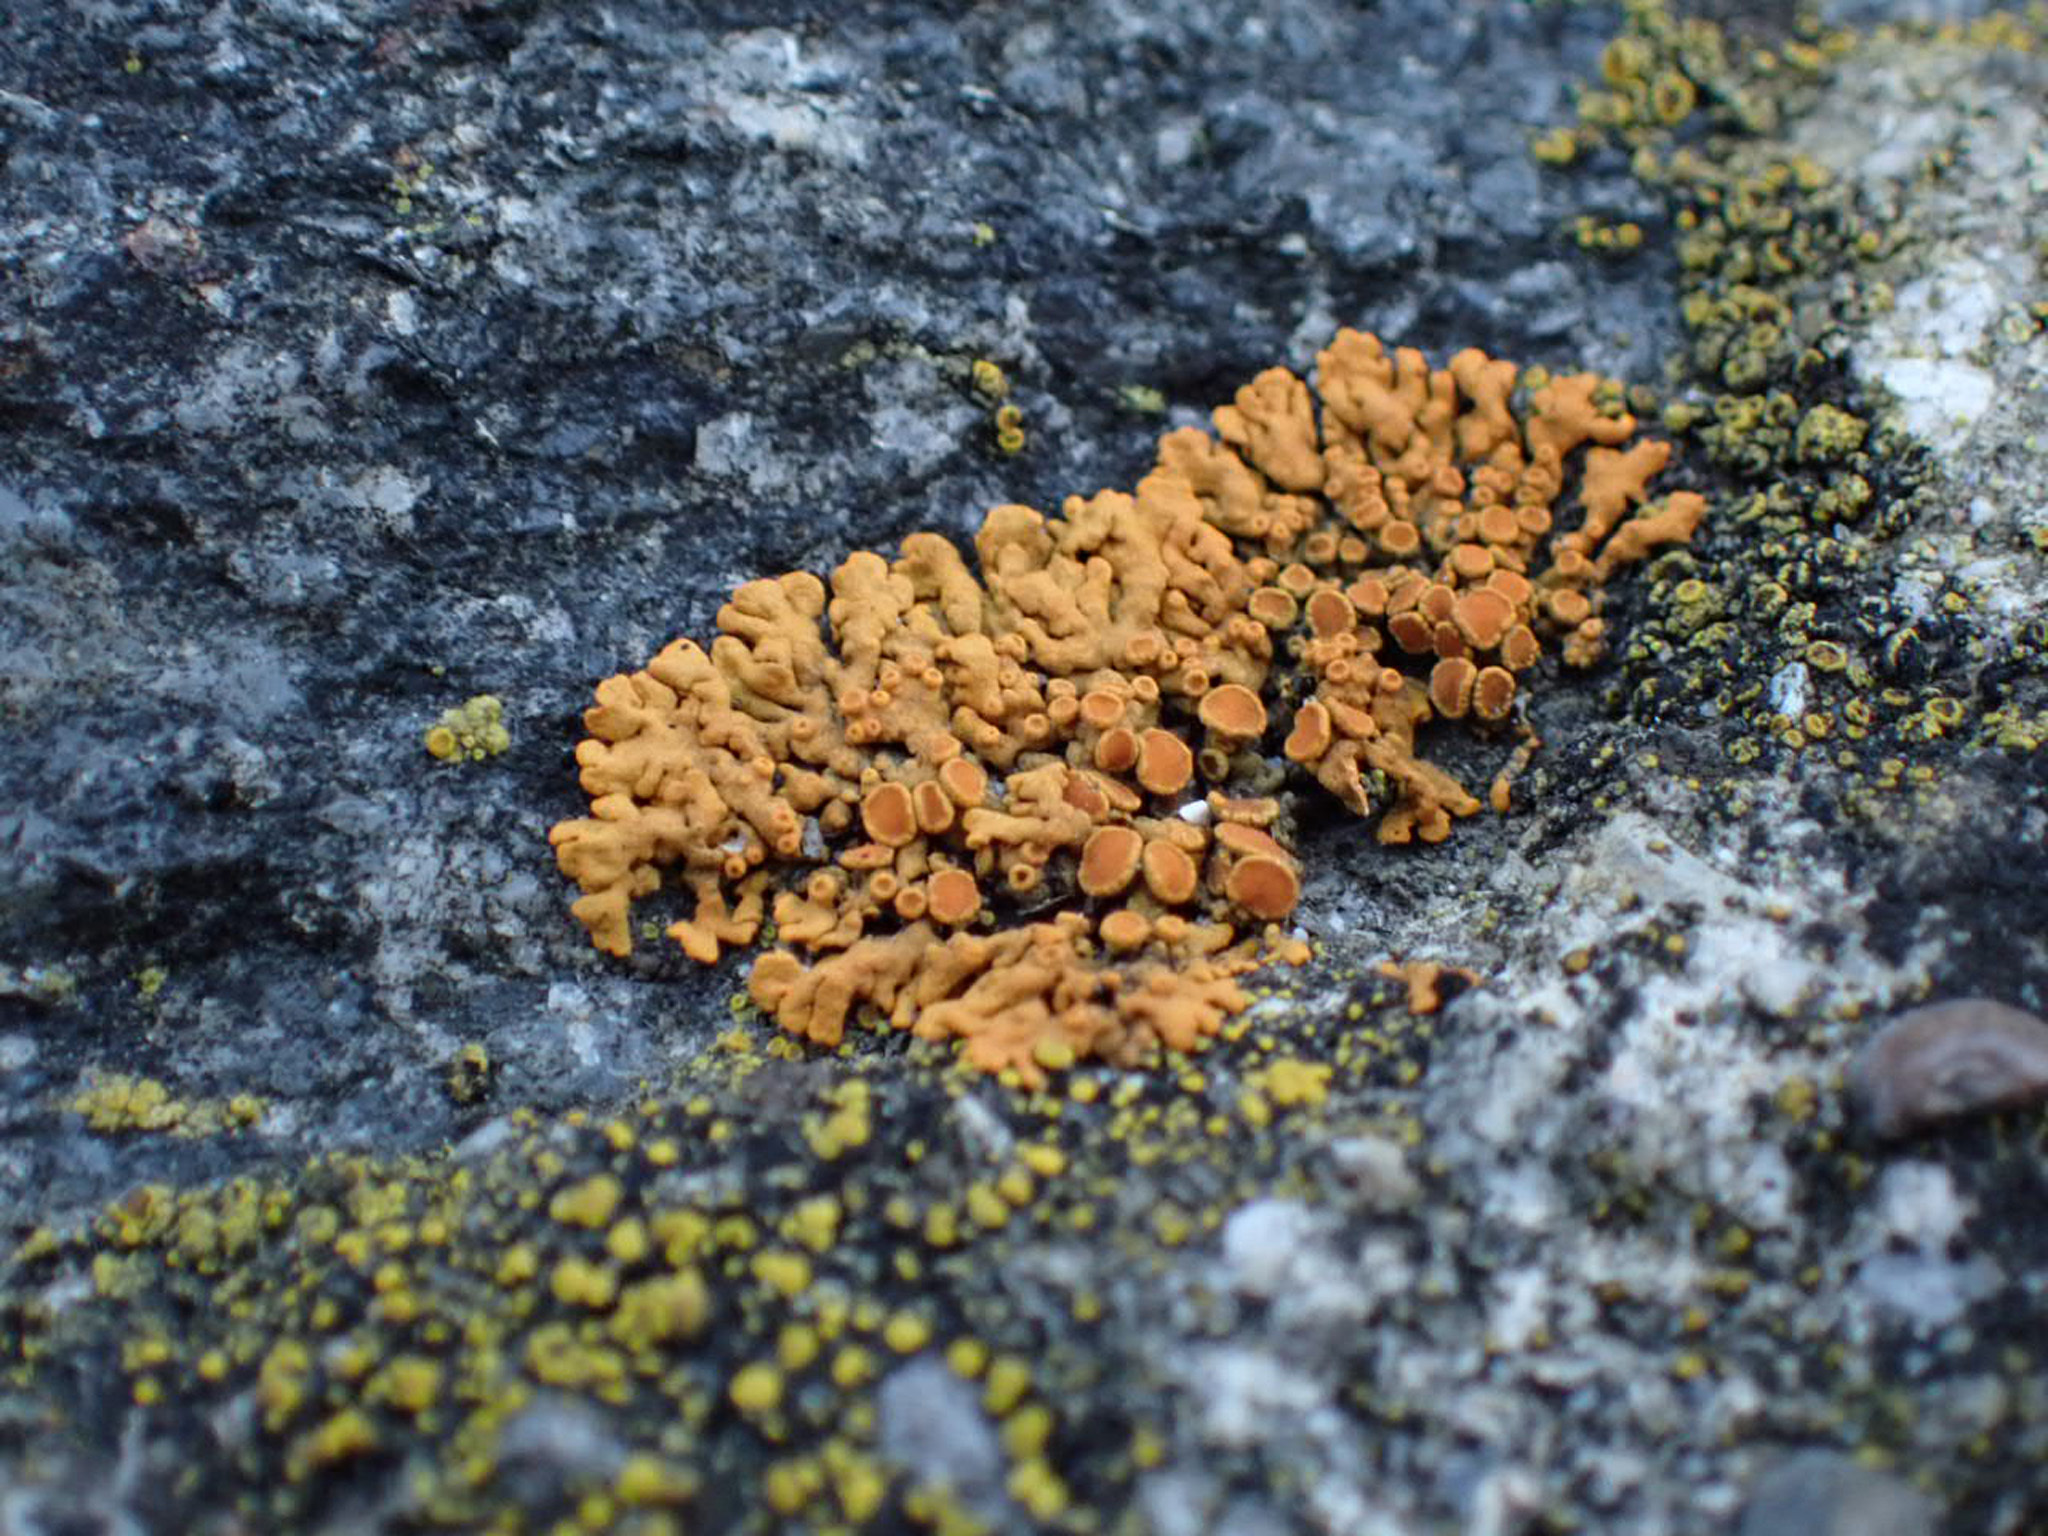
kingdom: Fungi
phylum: Ascomycota
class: Lecanoromycetes
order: Teloschistales
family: Teloschistaceae
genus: Xanthoria
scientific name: Xanthoria elegans
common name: Elegant sunburst lichen
